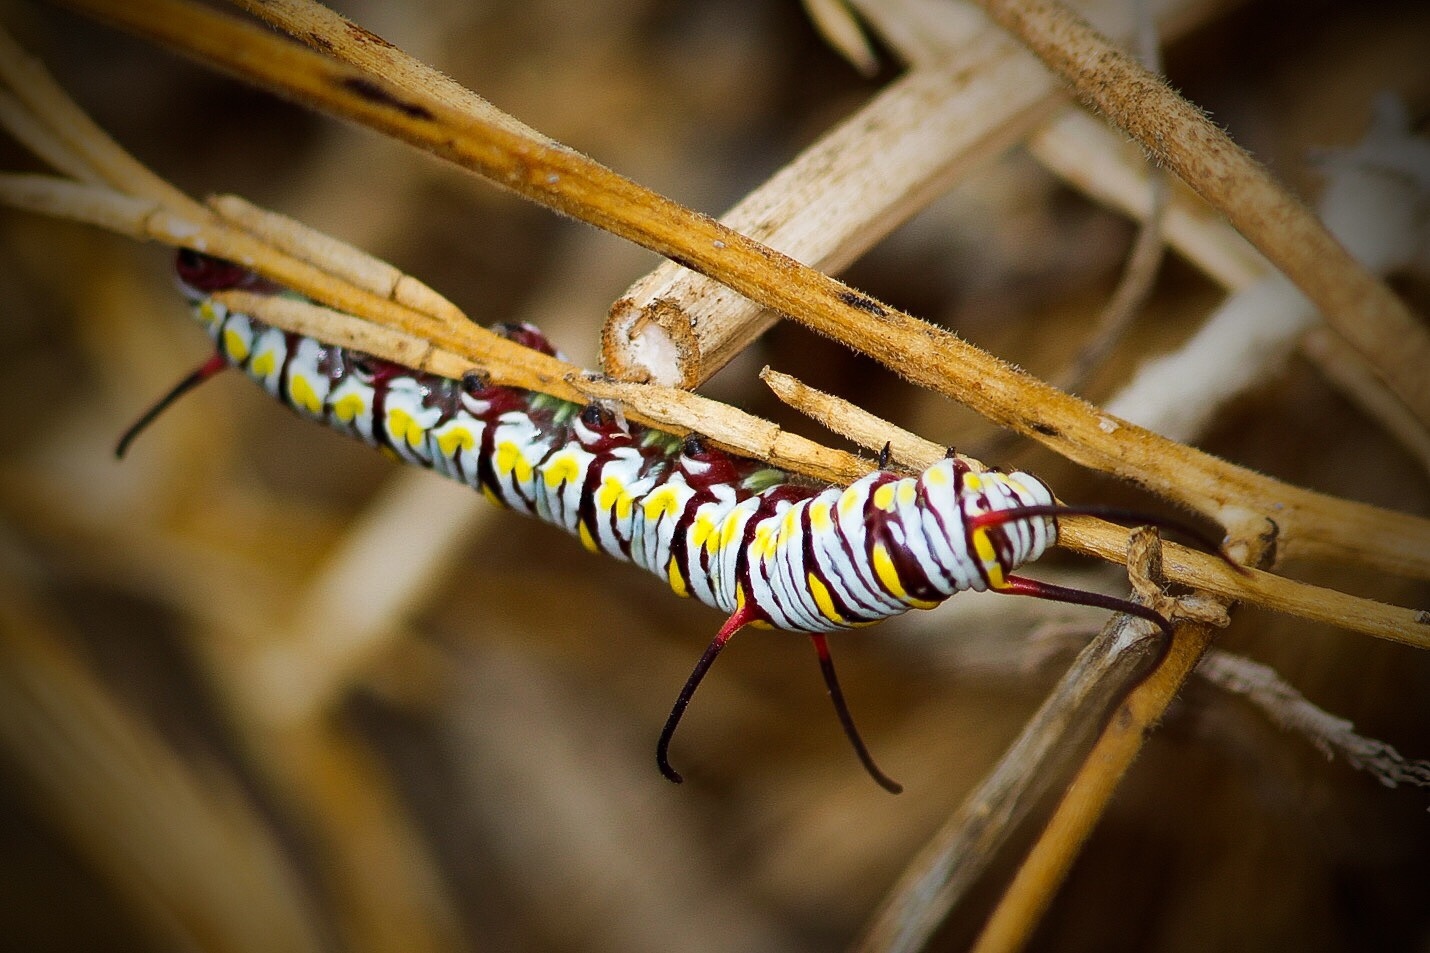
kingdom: Animalia
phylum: Arthropoda
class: Insecta
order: Lepidoptera
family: Nymphalidae
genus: Danaus
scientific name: Danaus gilippus
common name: Queen
